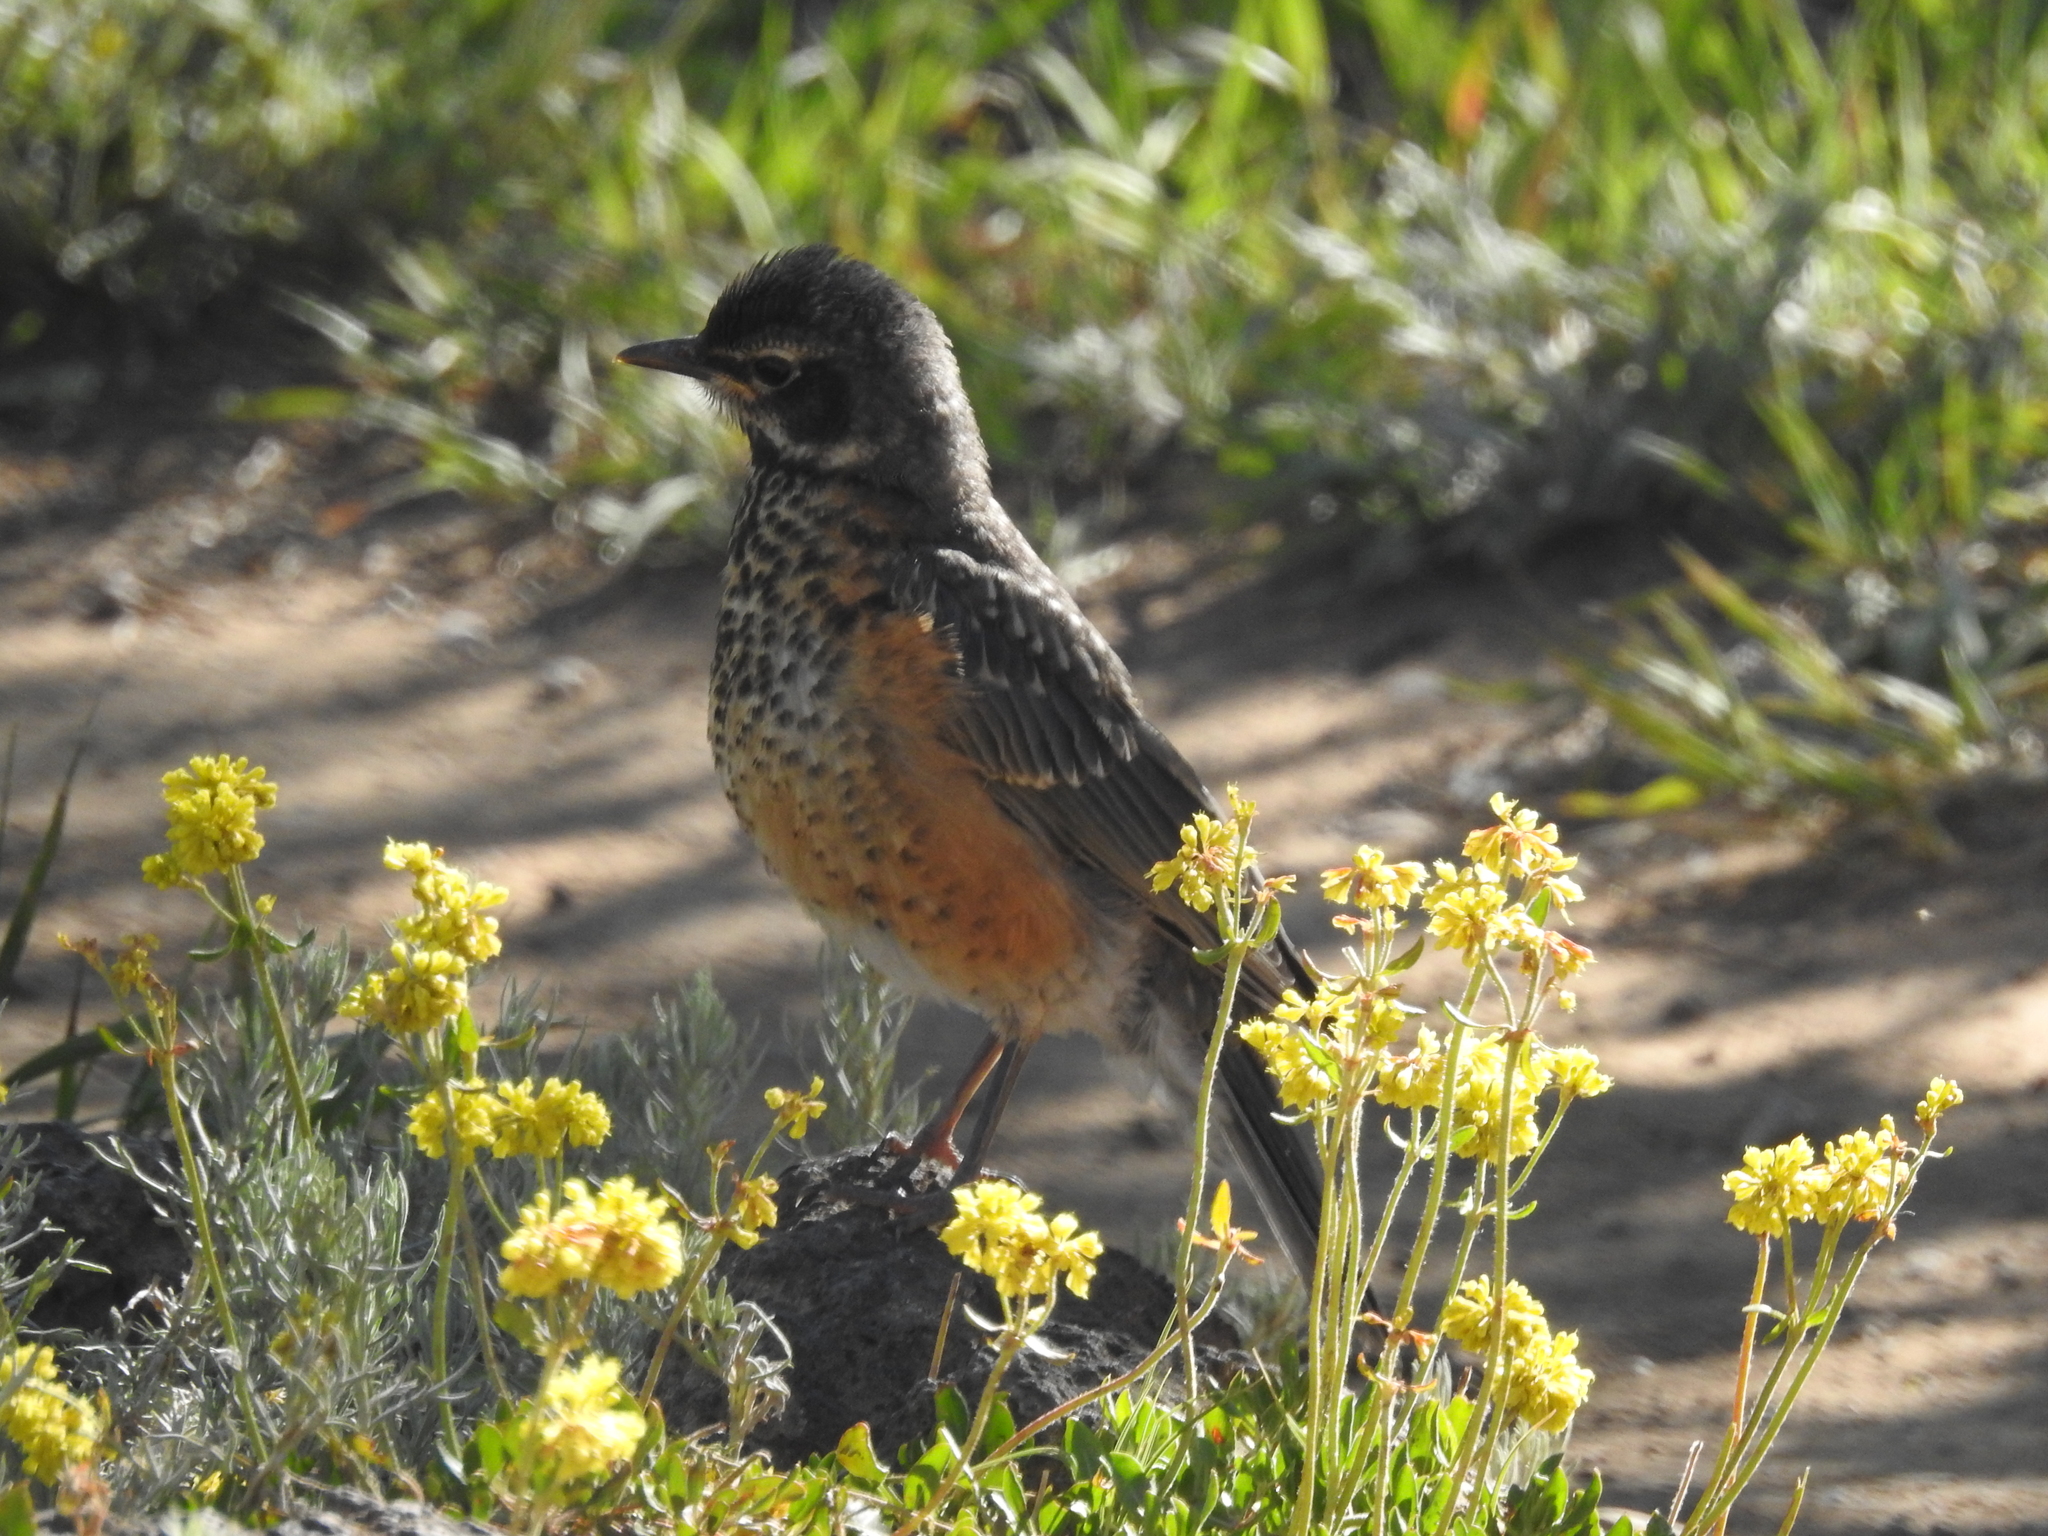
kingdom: Animalia
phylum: Chordata
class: Aves
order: Passeriformes
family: Turdidae
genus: Turdus
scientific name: Turdus migratorius
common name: American robin
